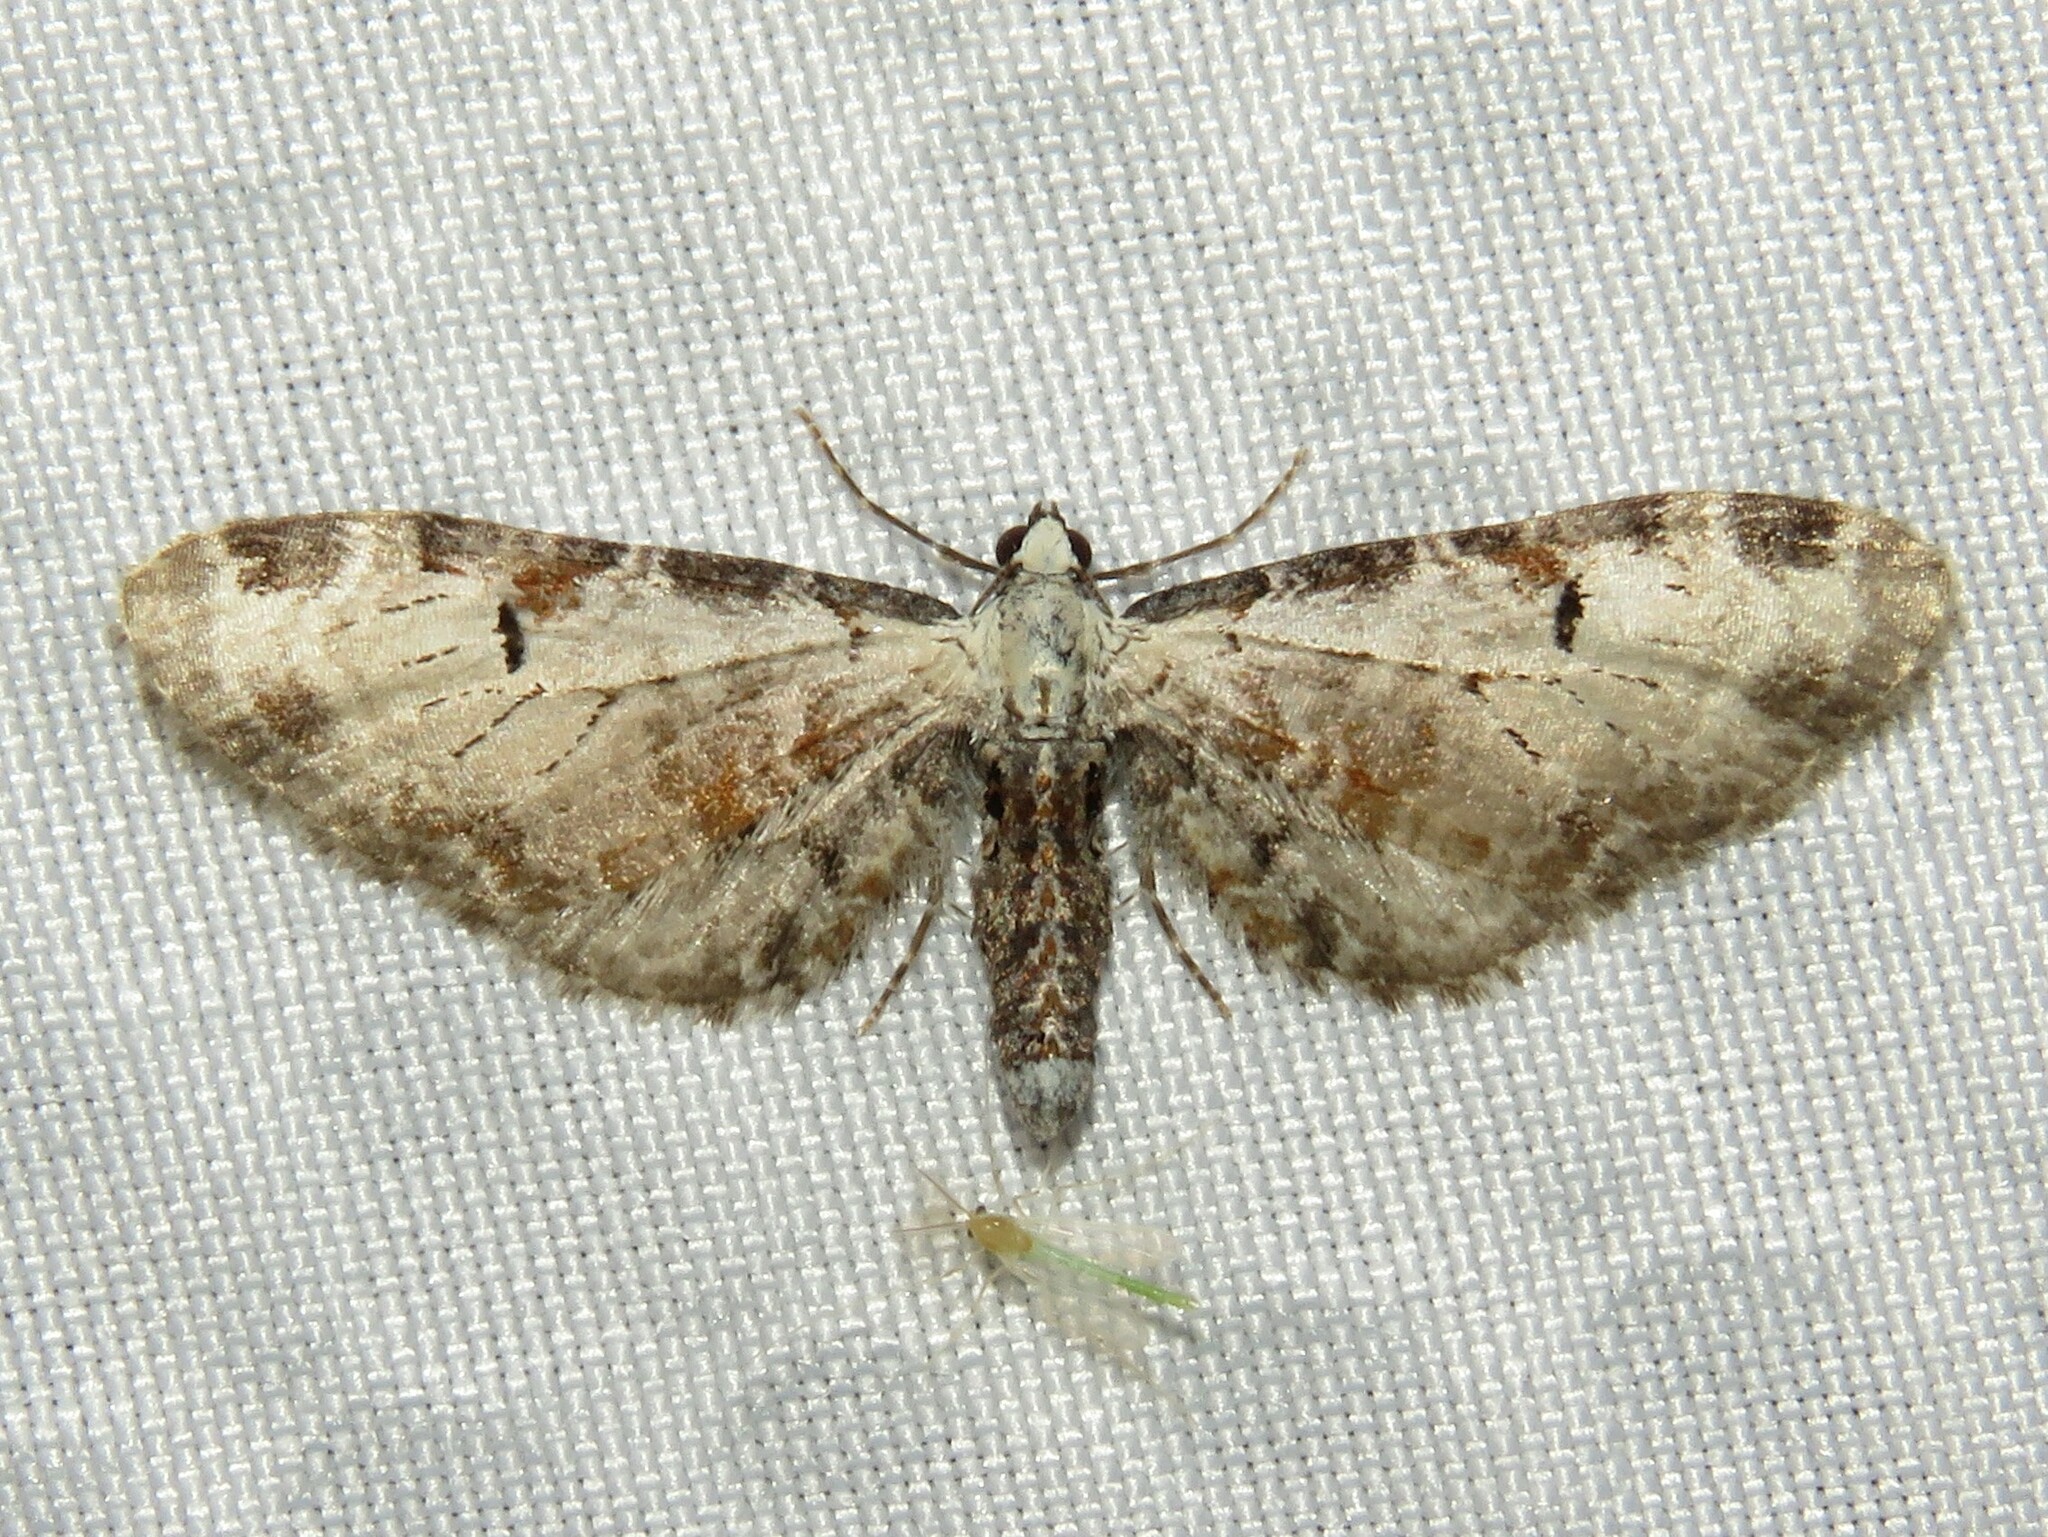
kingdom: Animalia
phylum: Arthropoda
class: Insecta
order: Lepidoptera
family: Geometridae
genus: Eupithecia
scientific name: Eupithecia ravocostaliata
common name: Great varigated pug
